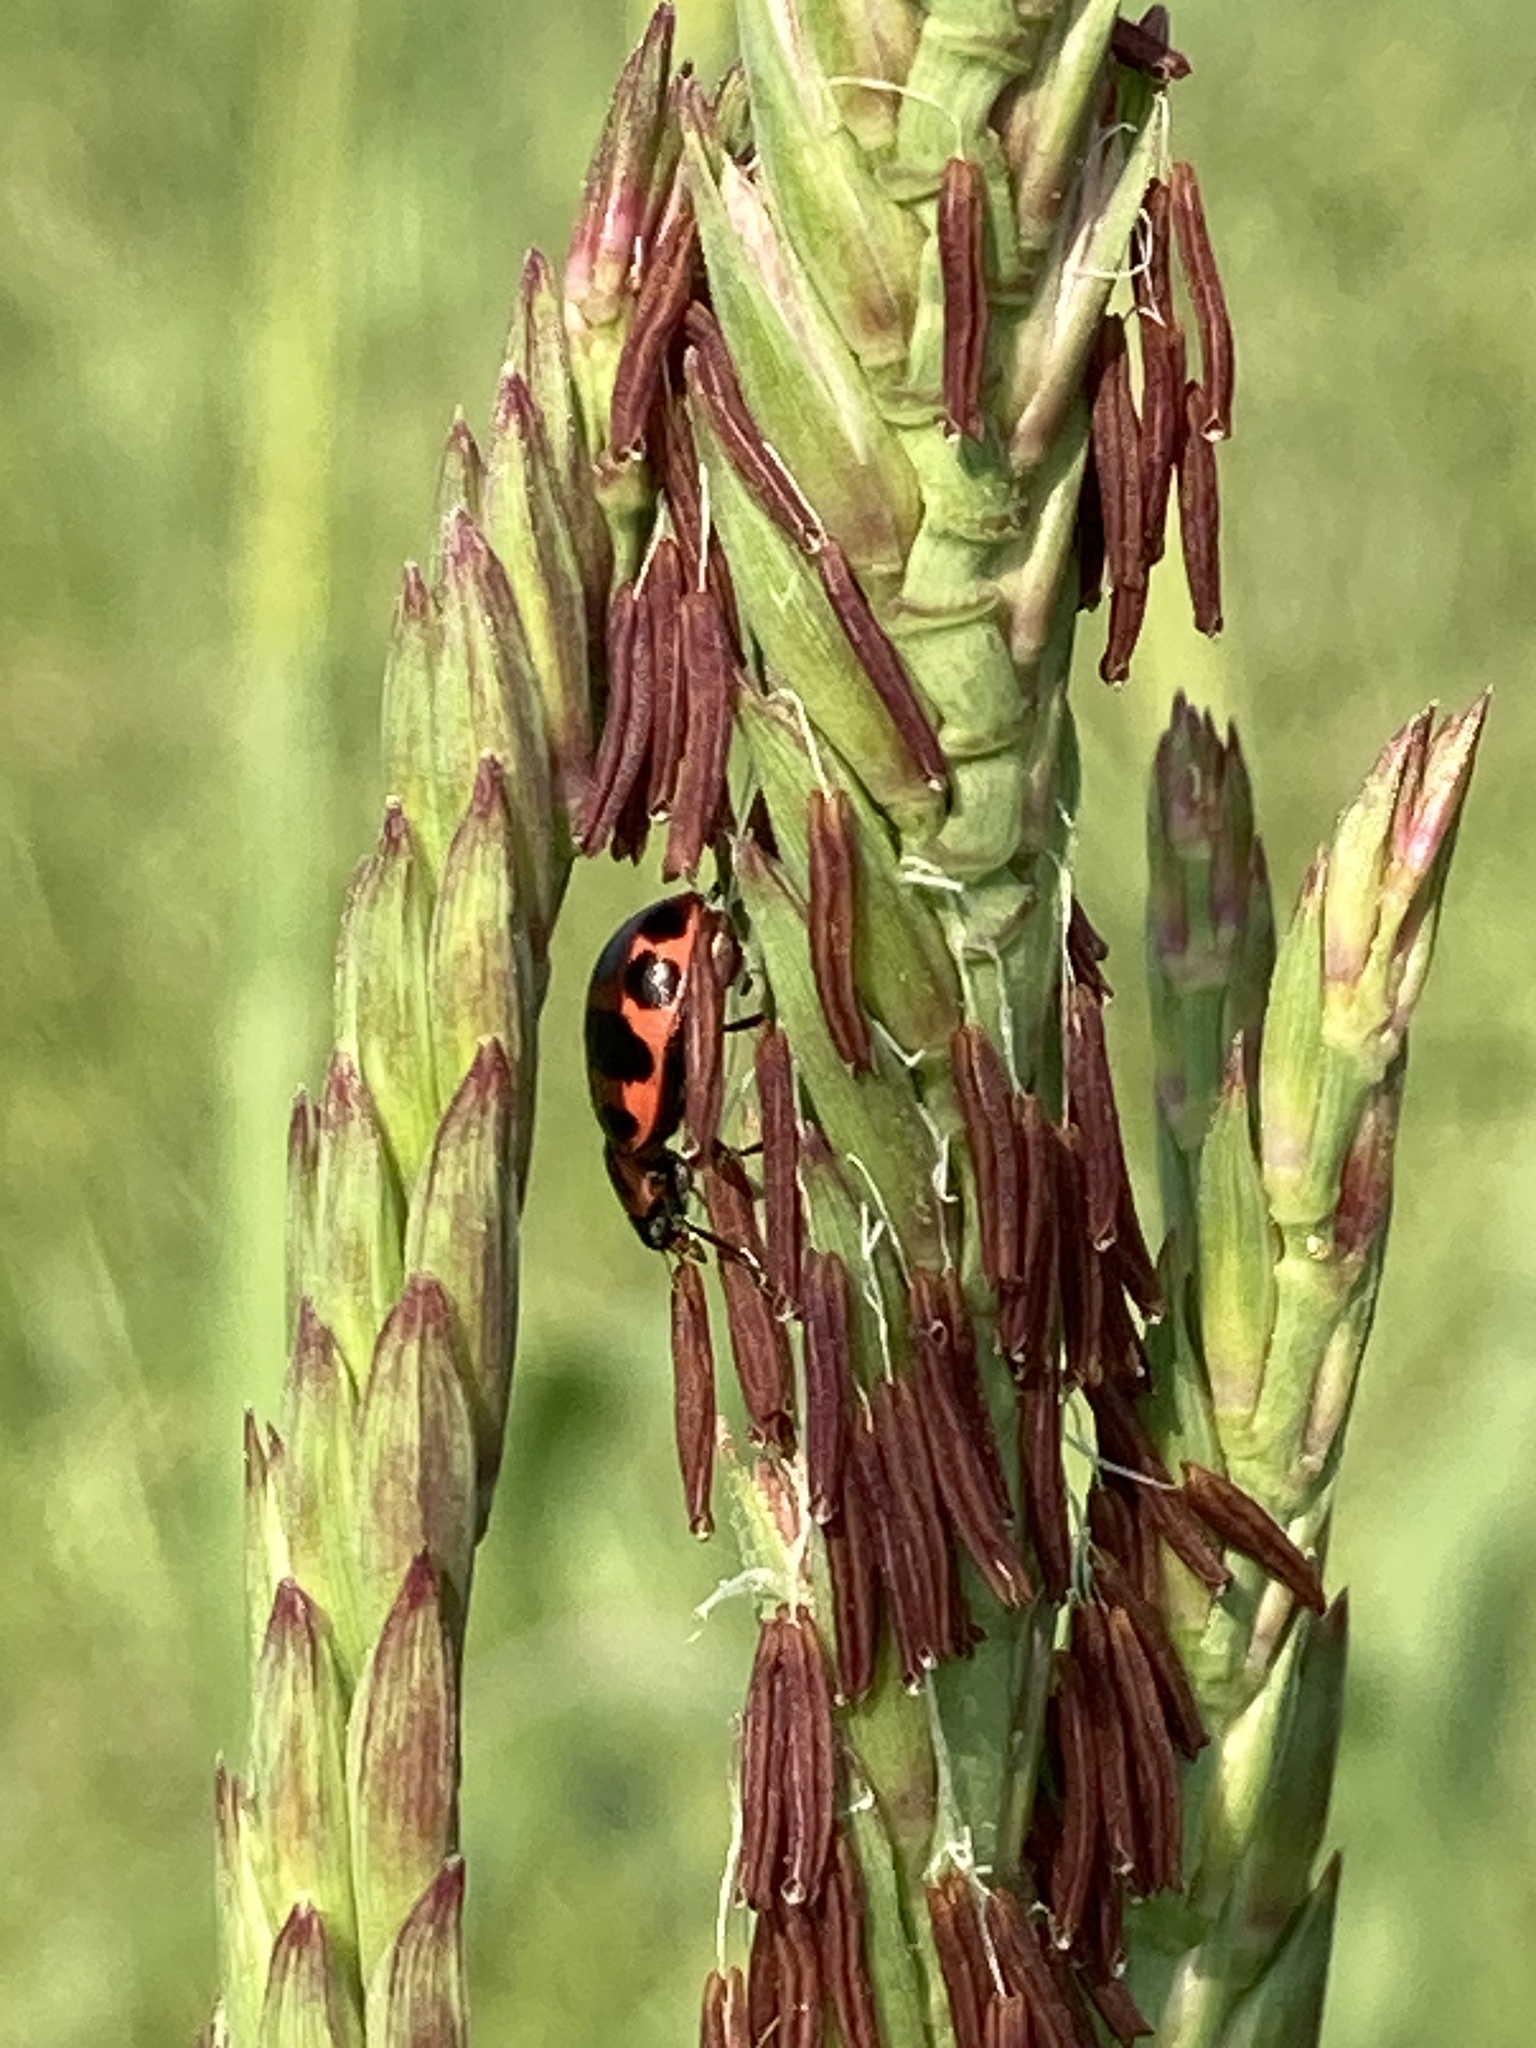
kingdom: Animalia
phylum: Arthropoda
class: Insecta
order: Coleoptera
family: Coccinellidae
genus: Coleomegilla
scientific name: Coleomegilla maculata
